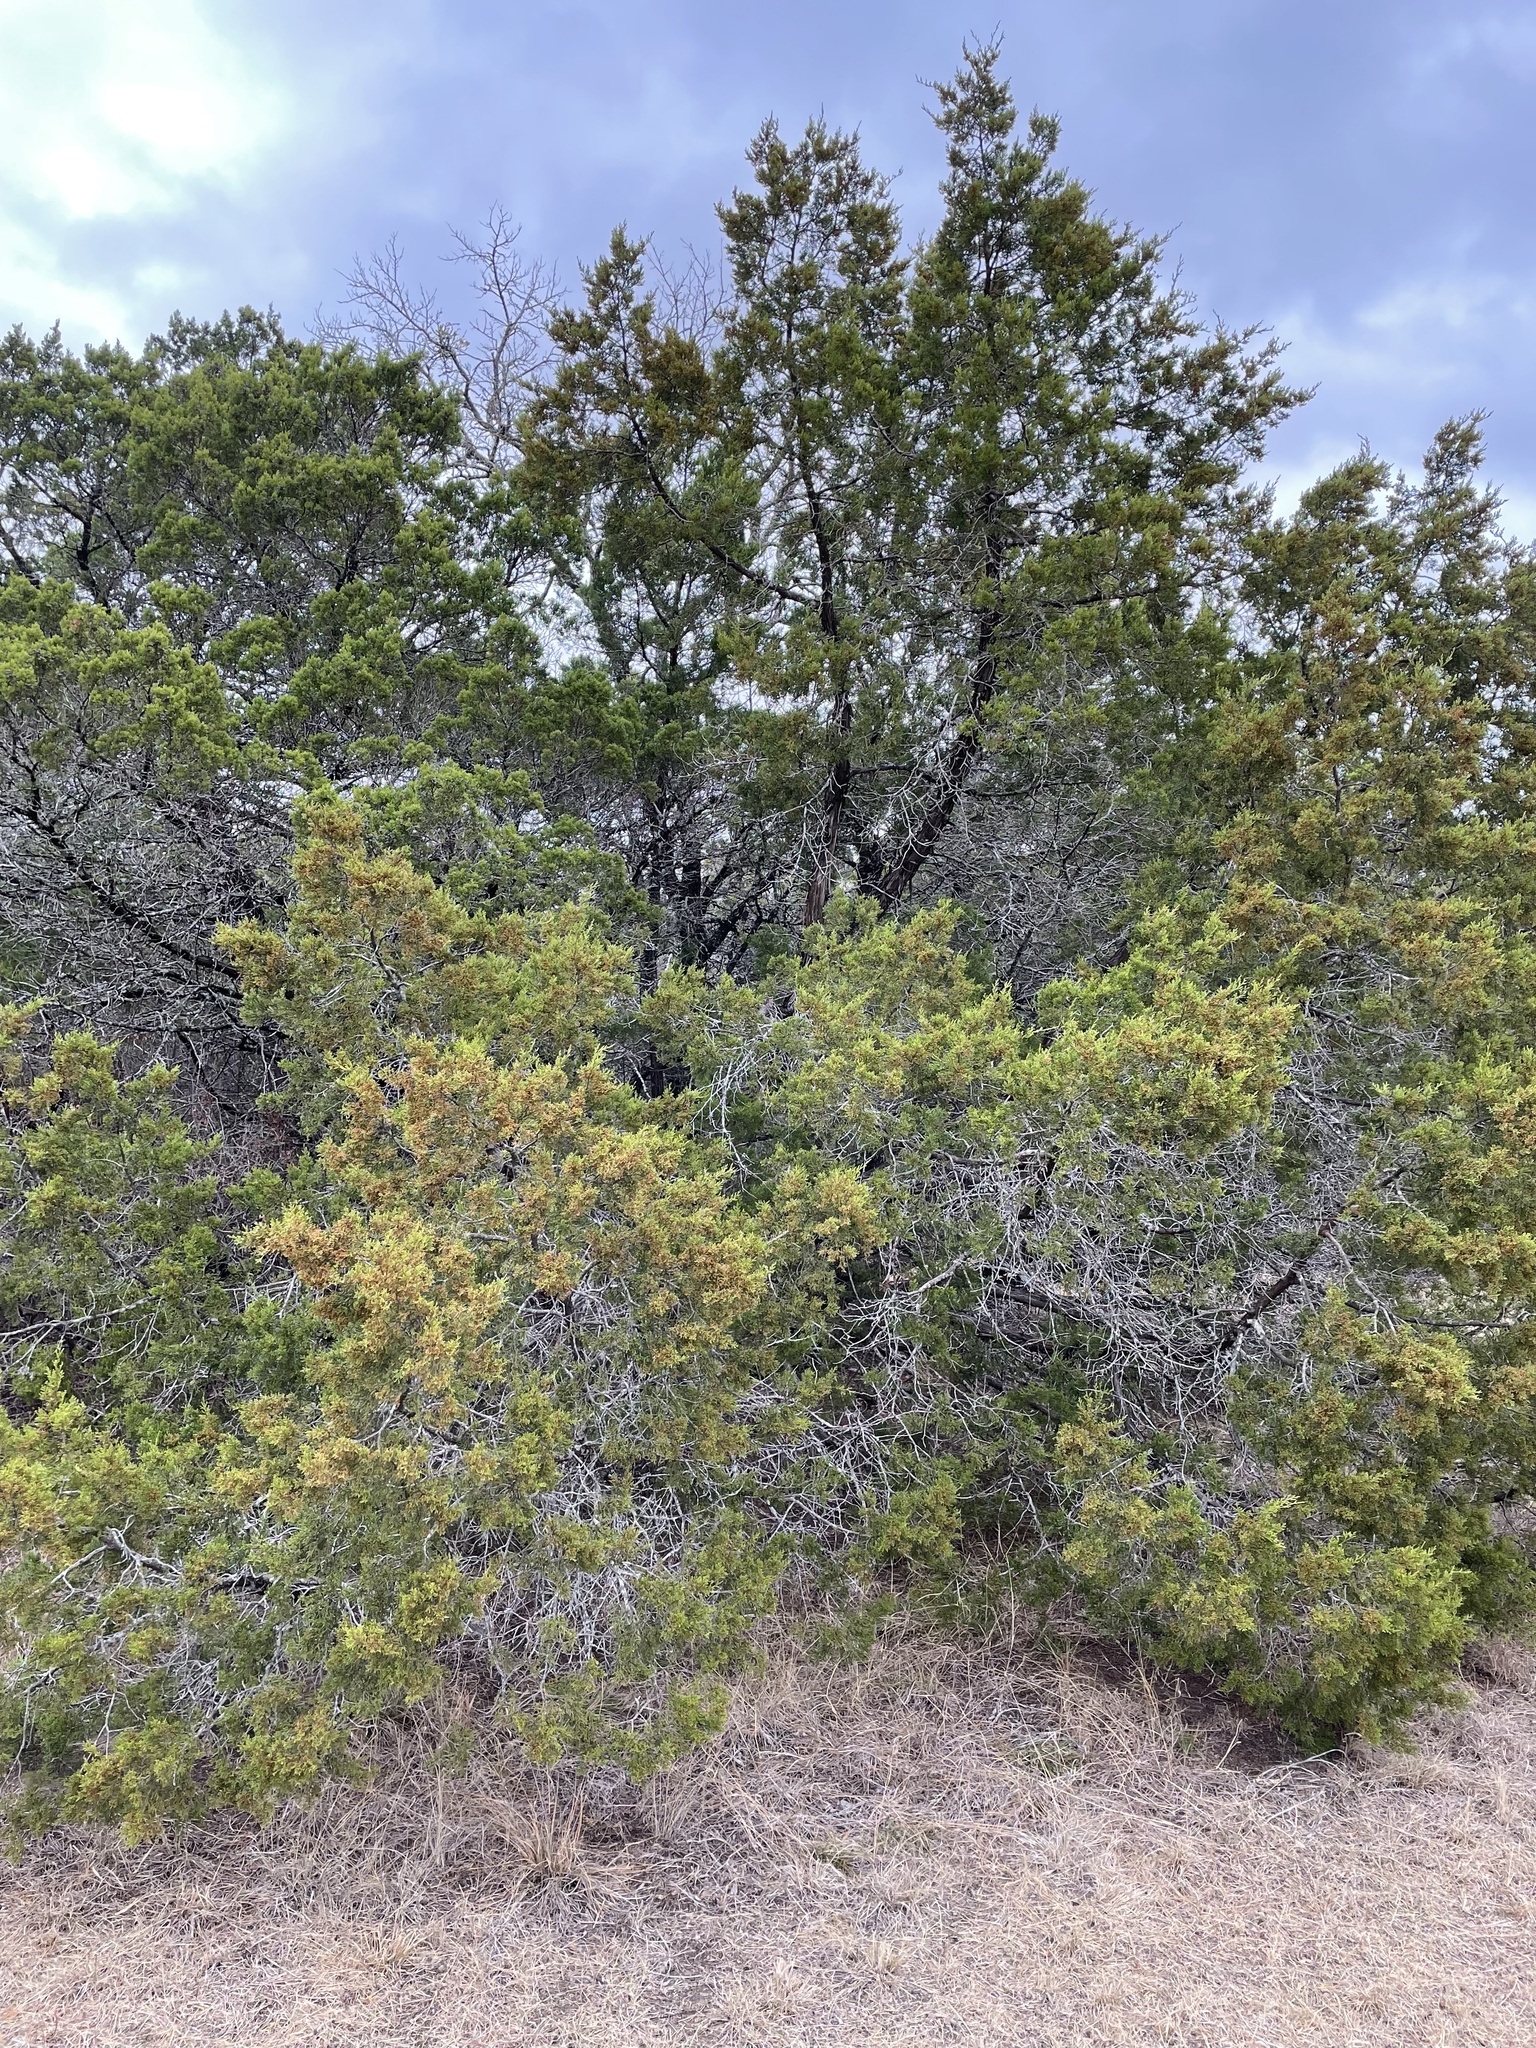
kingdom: Plantae
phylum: Tracheophyta
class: Pinopsida
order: Pinales
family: Cupressaceae
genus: Juniperus
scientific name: Juniperus ashei
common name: Mexican juniper
